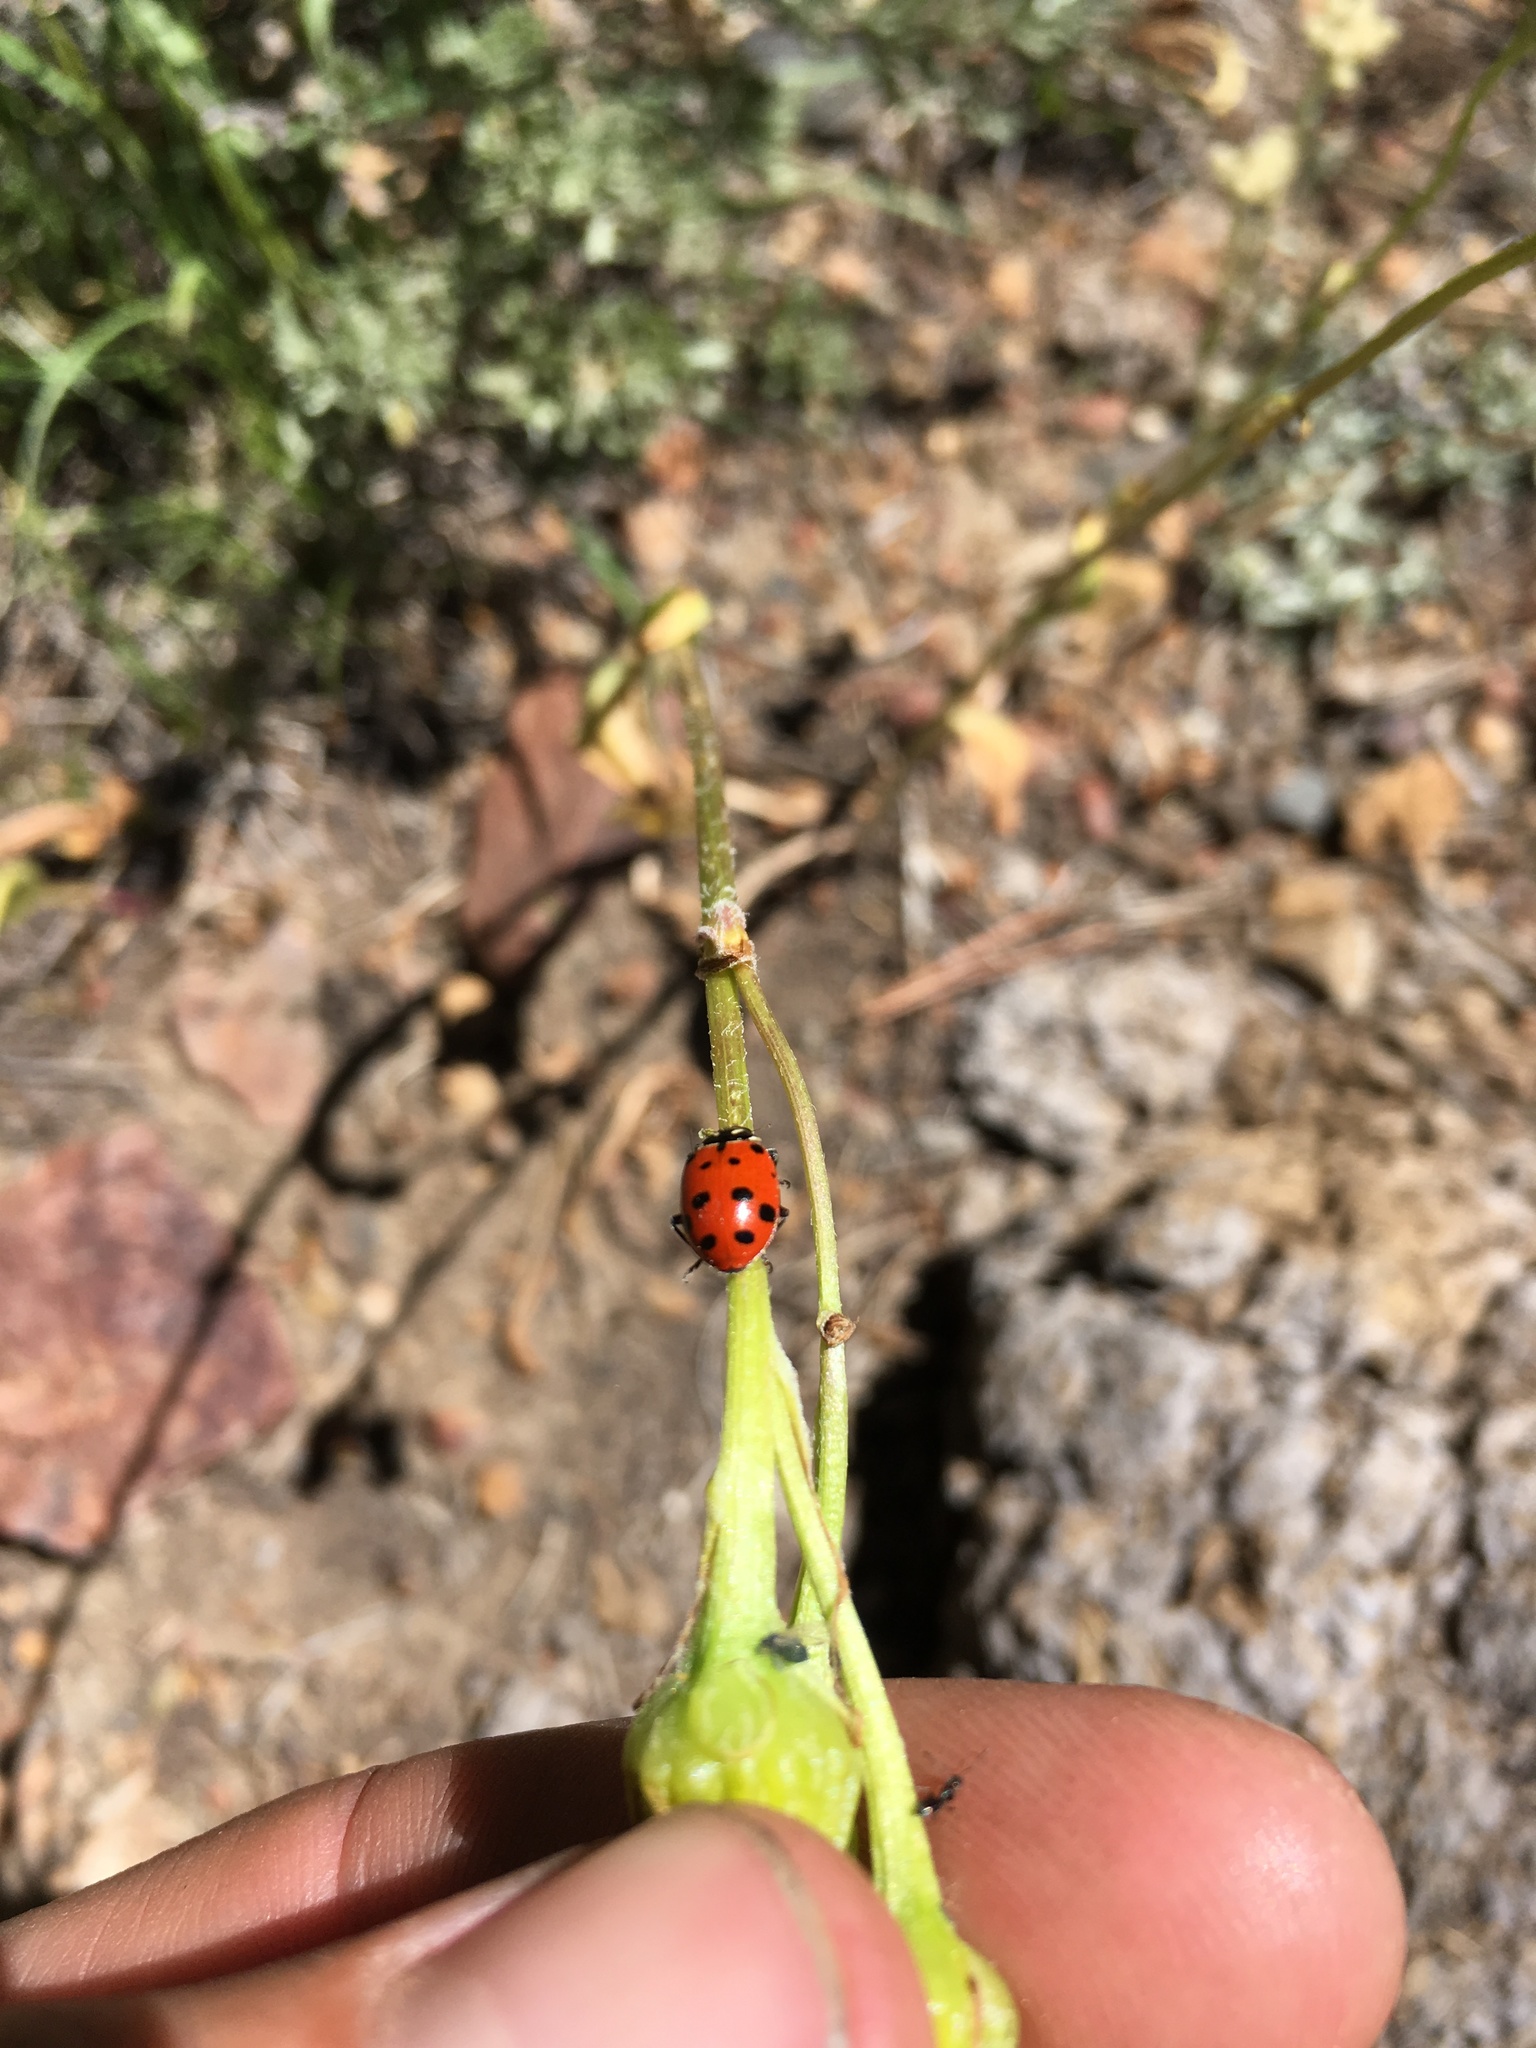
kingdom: Animalia
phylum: Arthropoda
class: Insecta
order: Coleoptera
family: Coccinellidae
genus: Hippodamia
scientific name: Hippodamia convergens
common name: Convergent lady beetle
